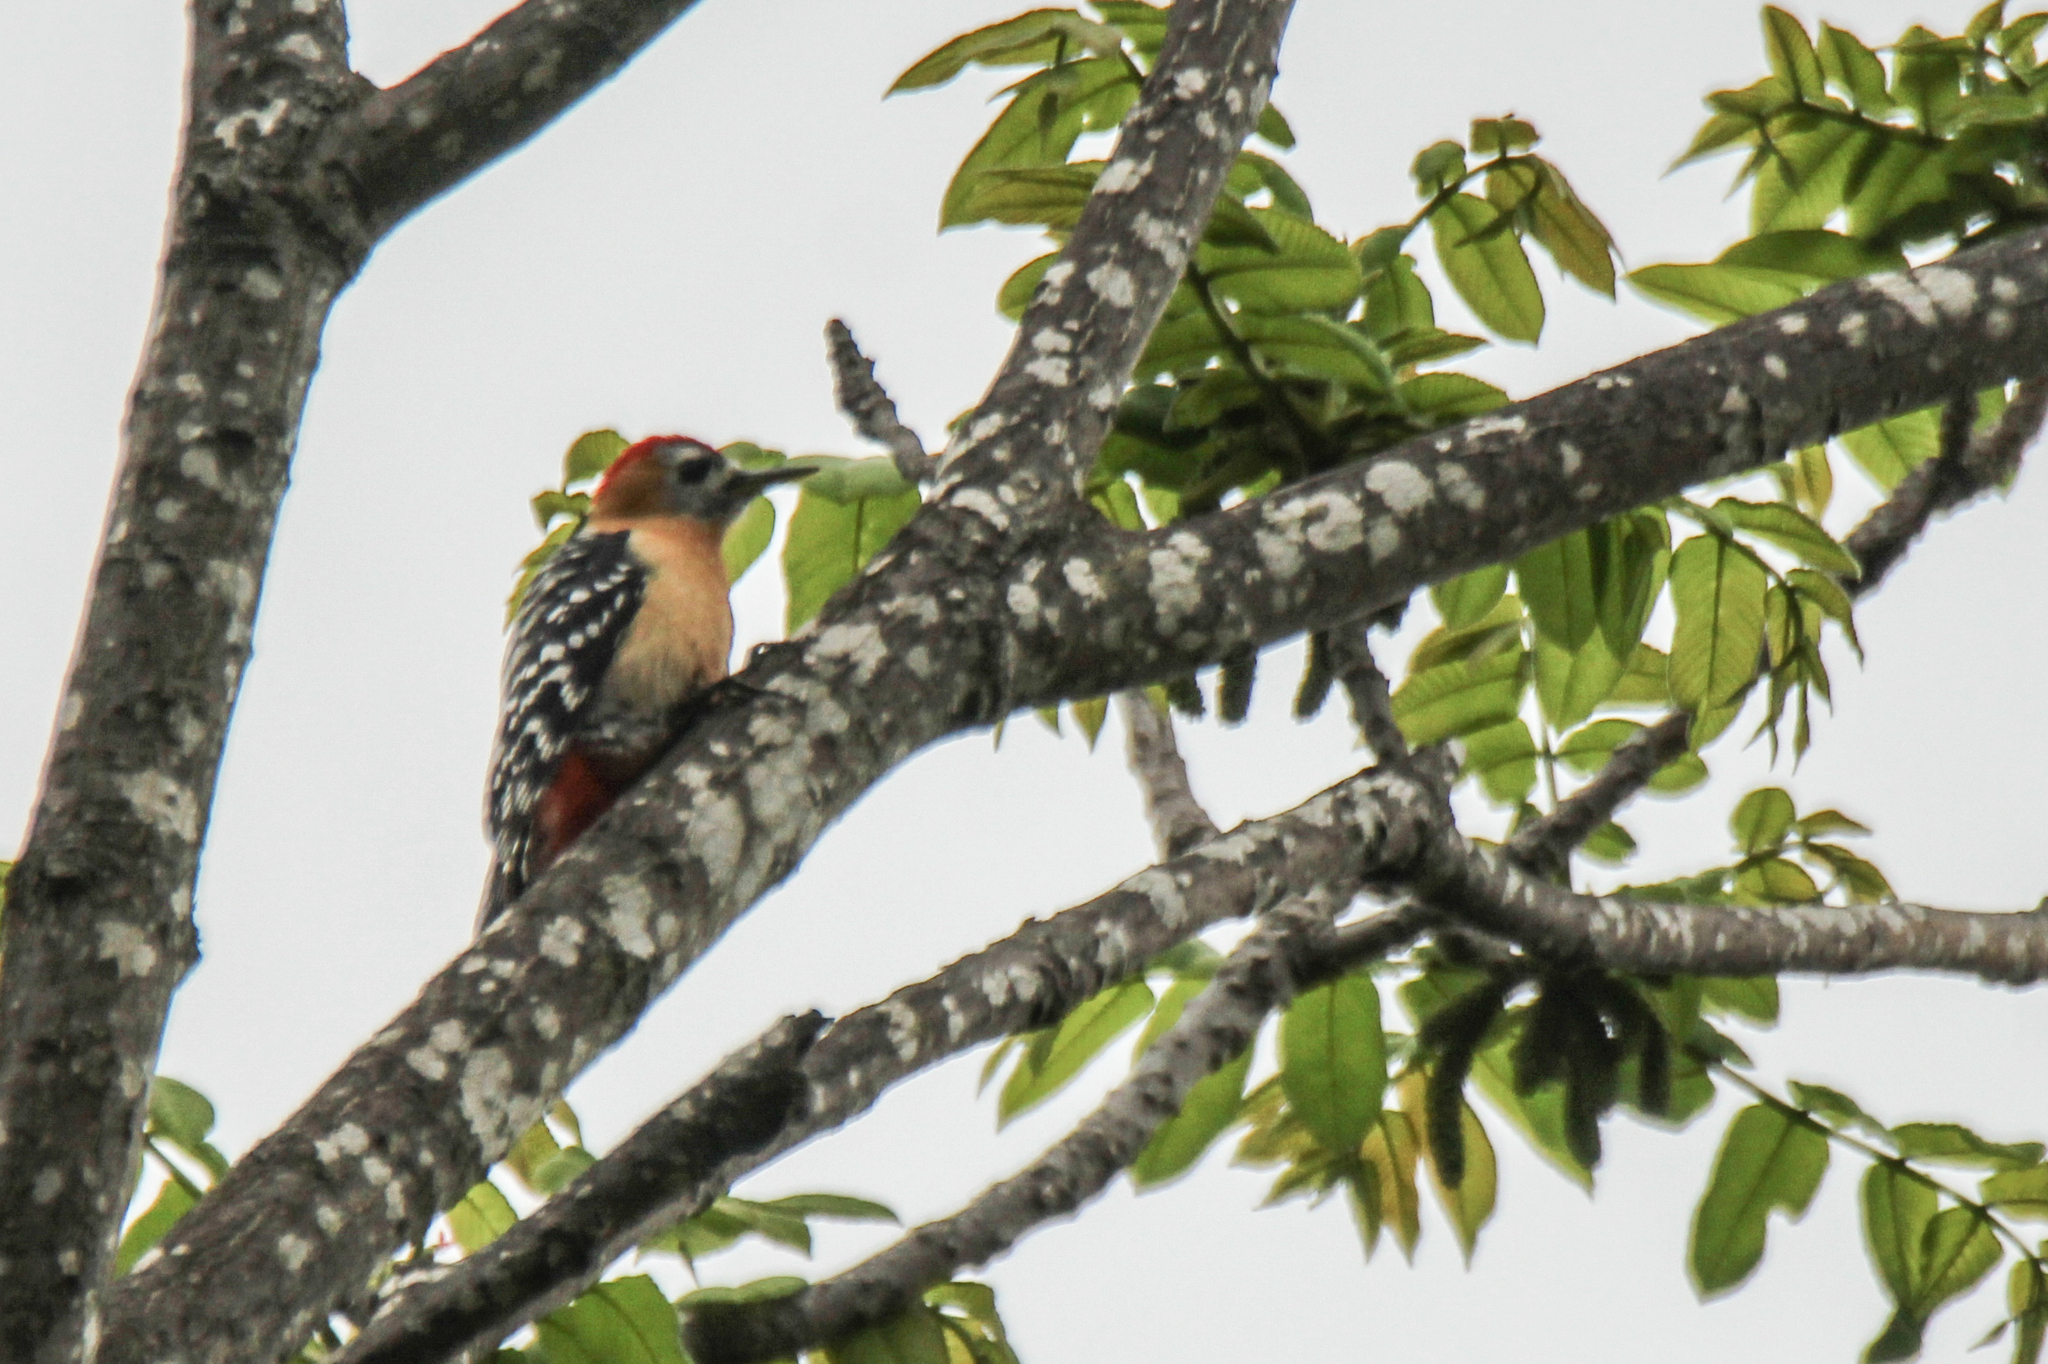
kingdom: Animalia
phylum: Chordata
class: Aves
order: Piciformes
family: Picidae
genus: Dendrocopos
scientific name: Dendrocopos hyperythrus
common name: Rufous-bellied woodpecker
